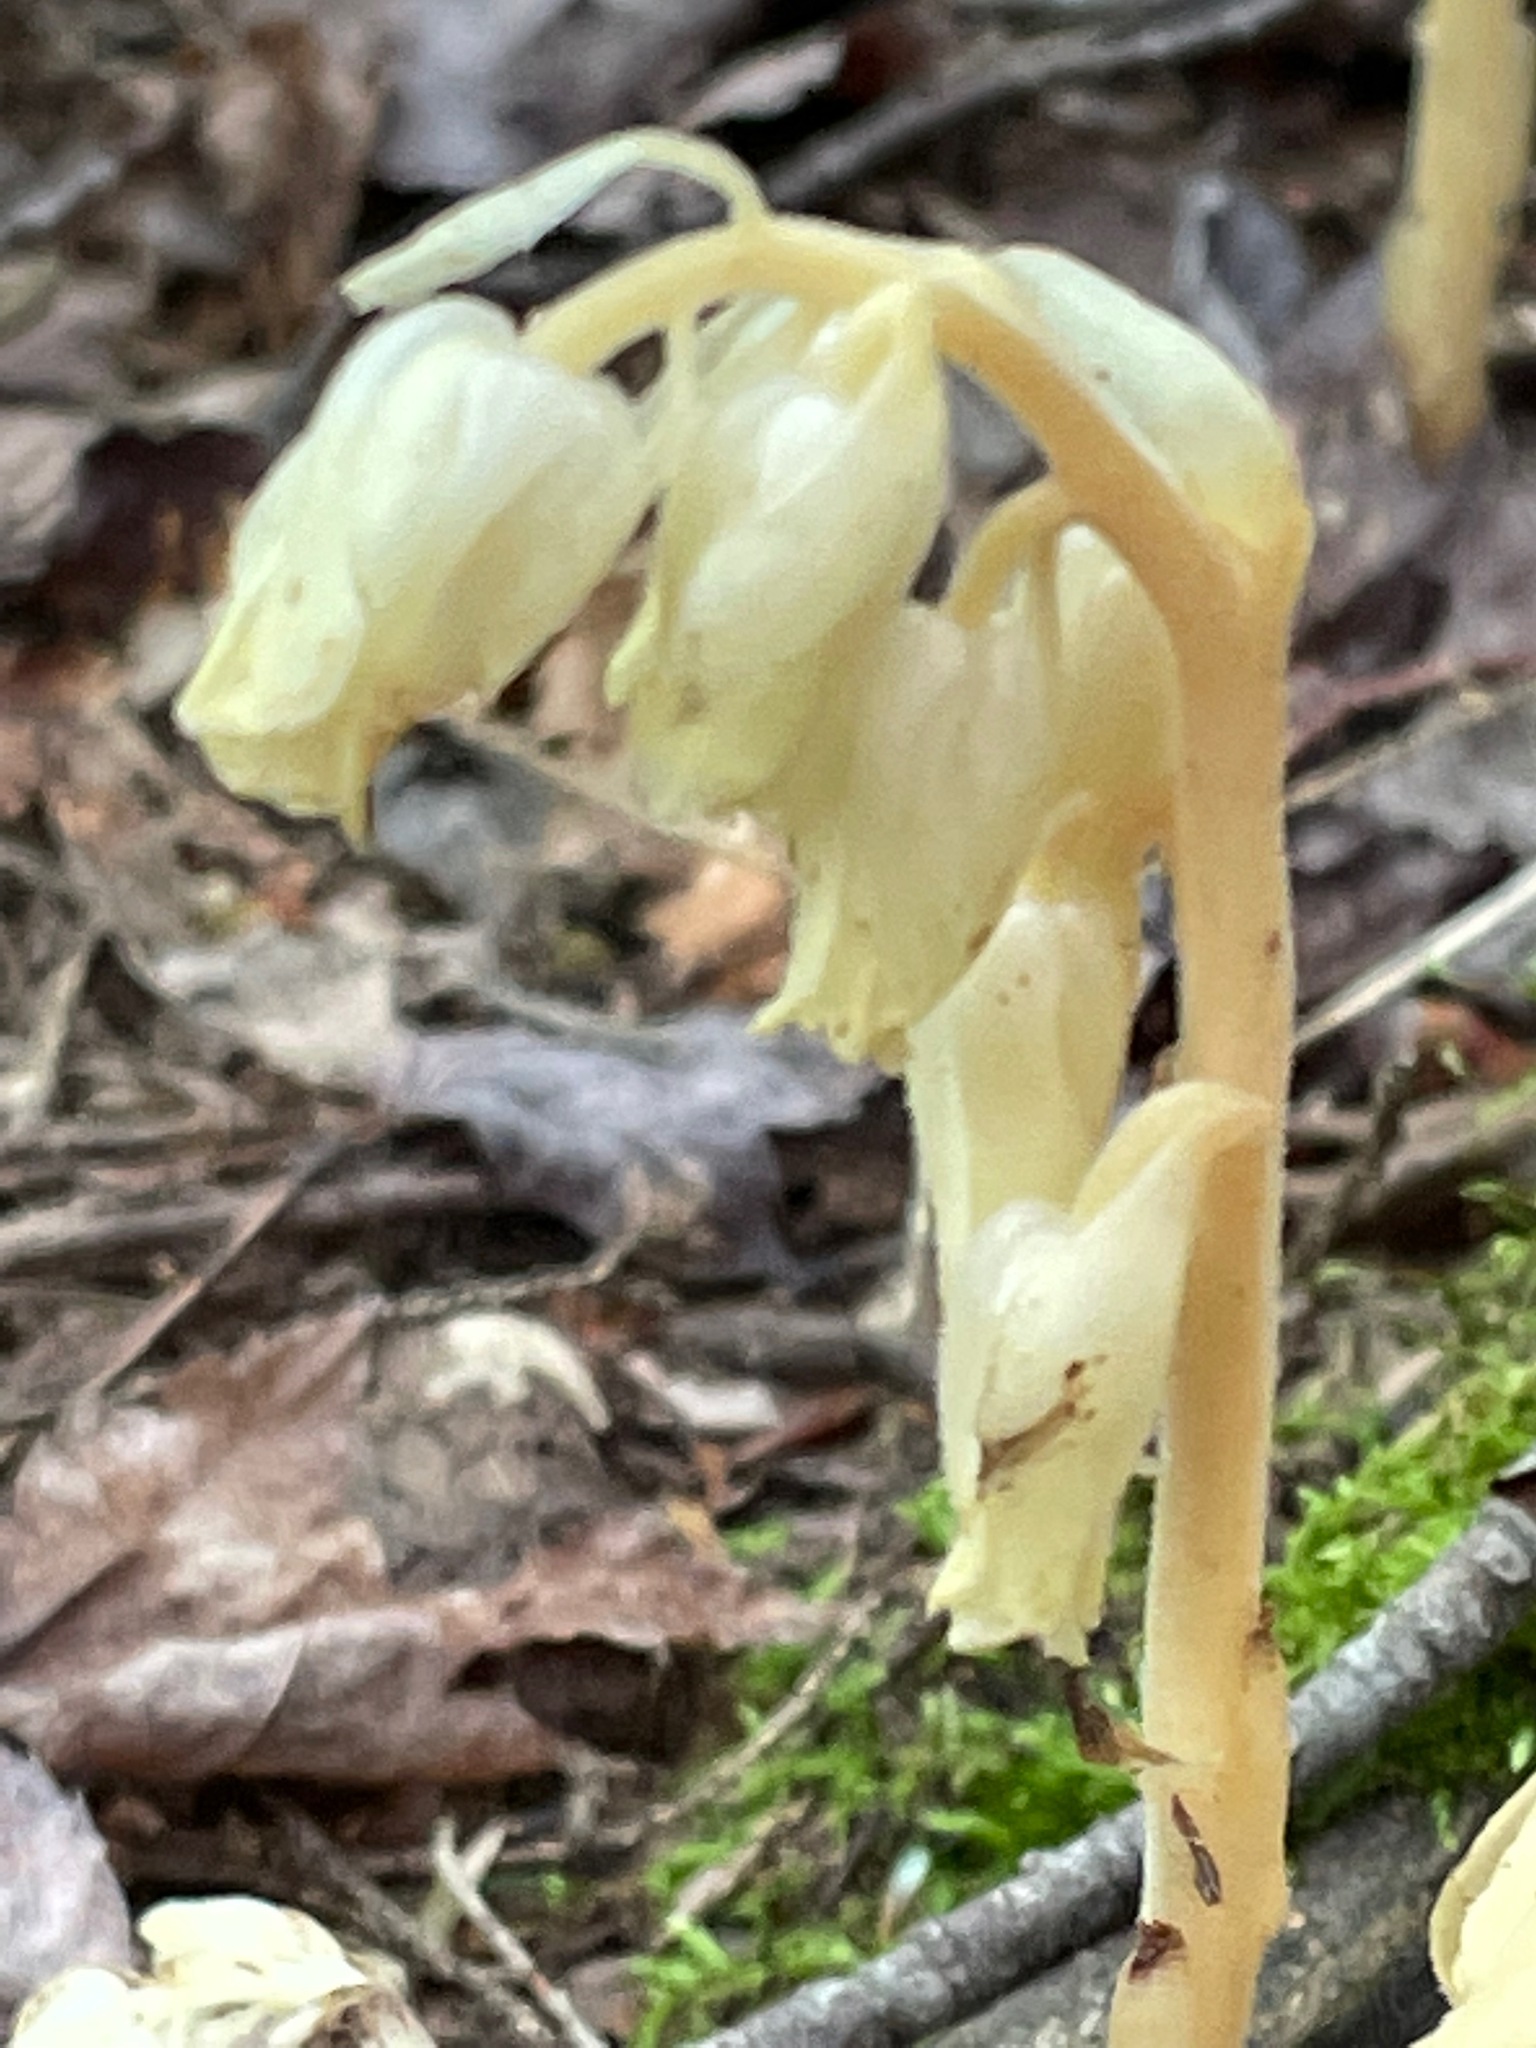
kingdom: Plantae
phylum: Tracheophyta
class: Magnoliopsida
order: Ericales
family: Ericaceae
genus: Hypopitys
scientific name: Hypopitys monotropa
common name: Yellow bird's-nest
